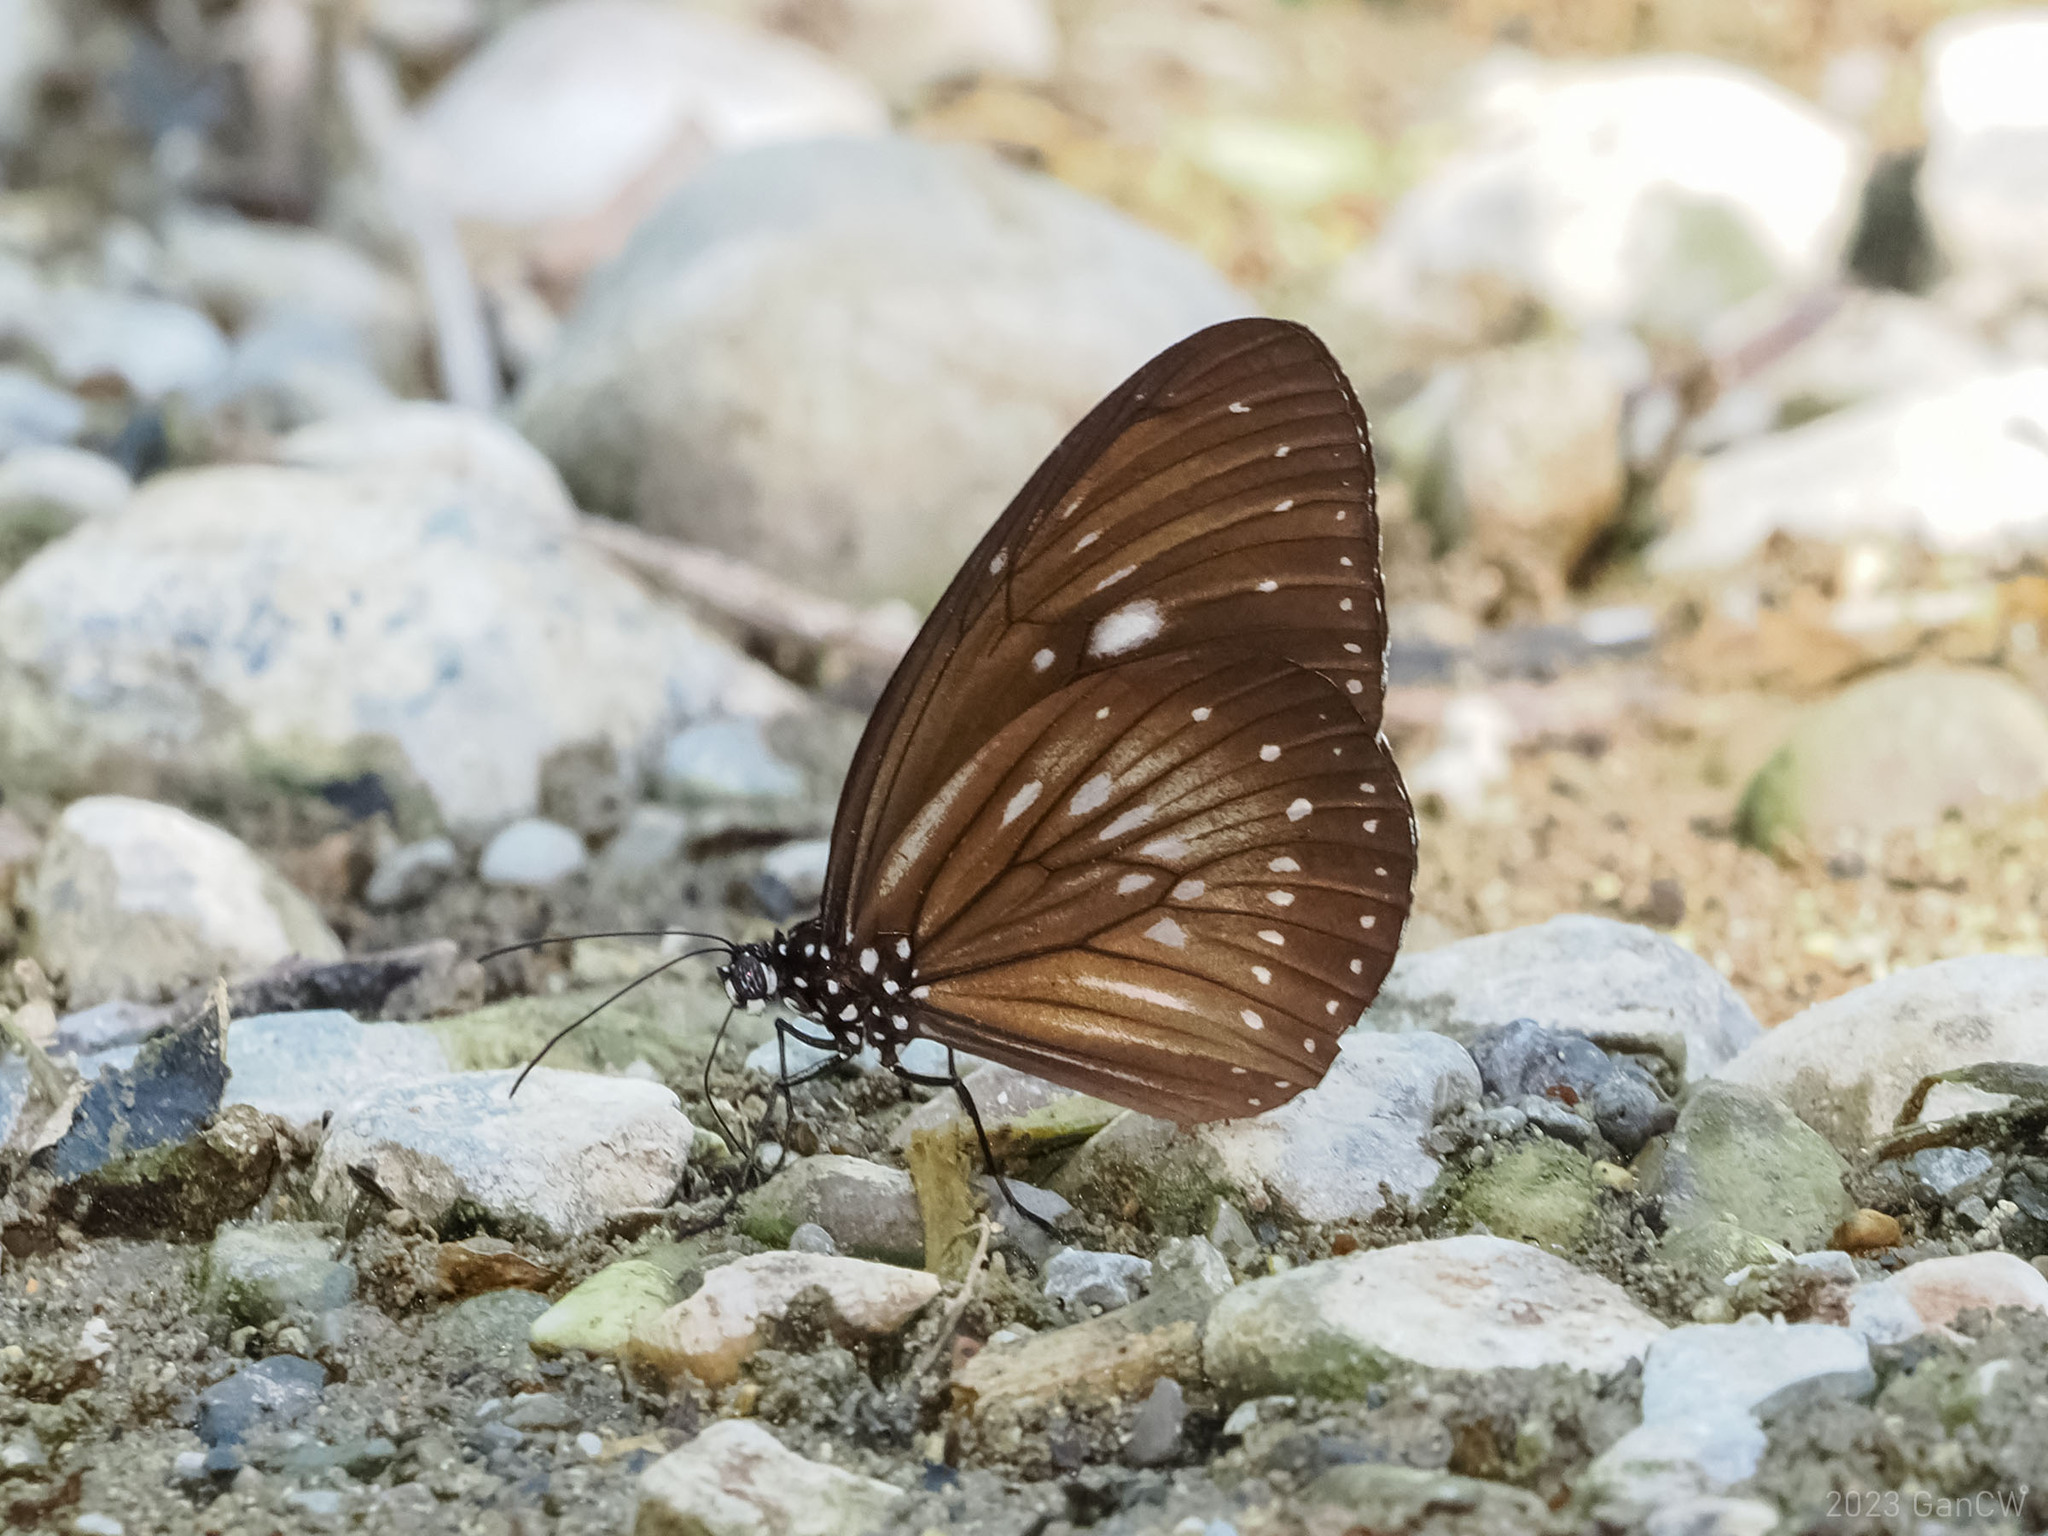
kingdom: Animalia
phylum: Arthropoda
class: Insecta
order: Lepidoptera
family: Nymphalidae
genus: Euploea
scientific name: Euploea algea
